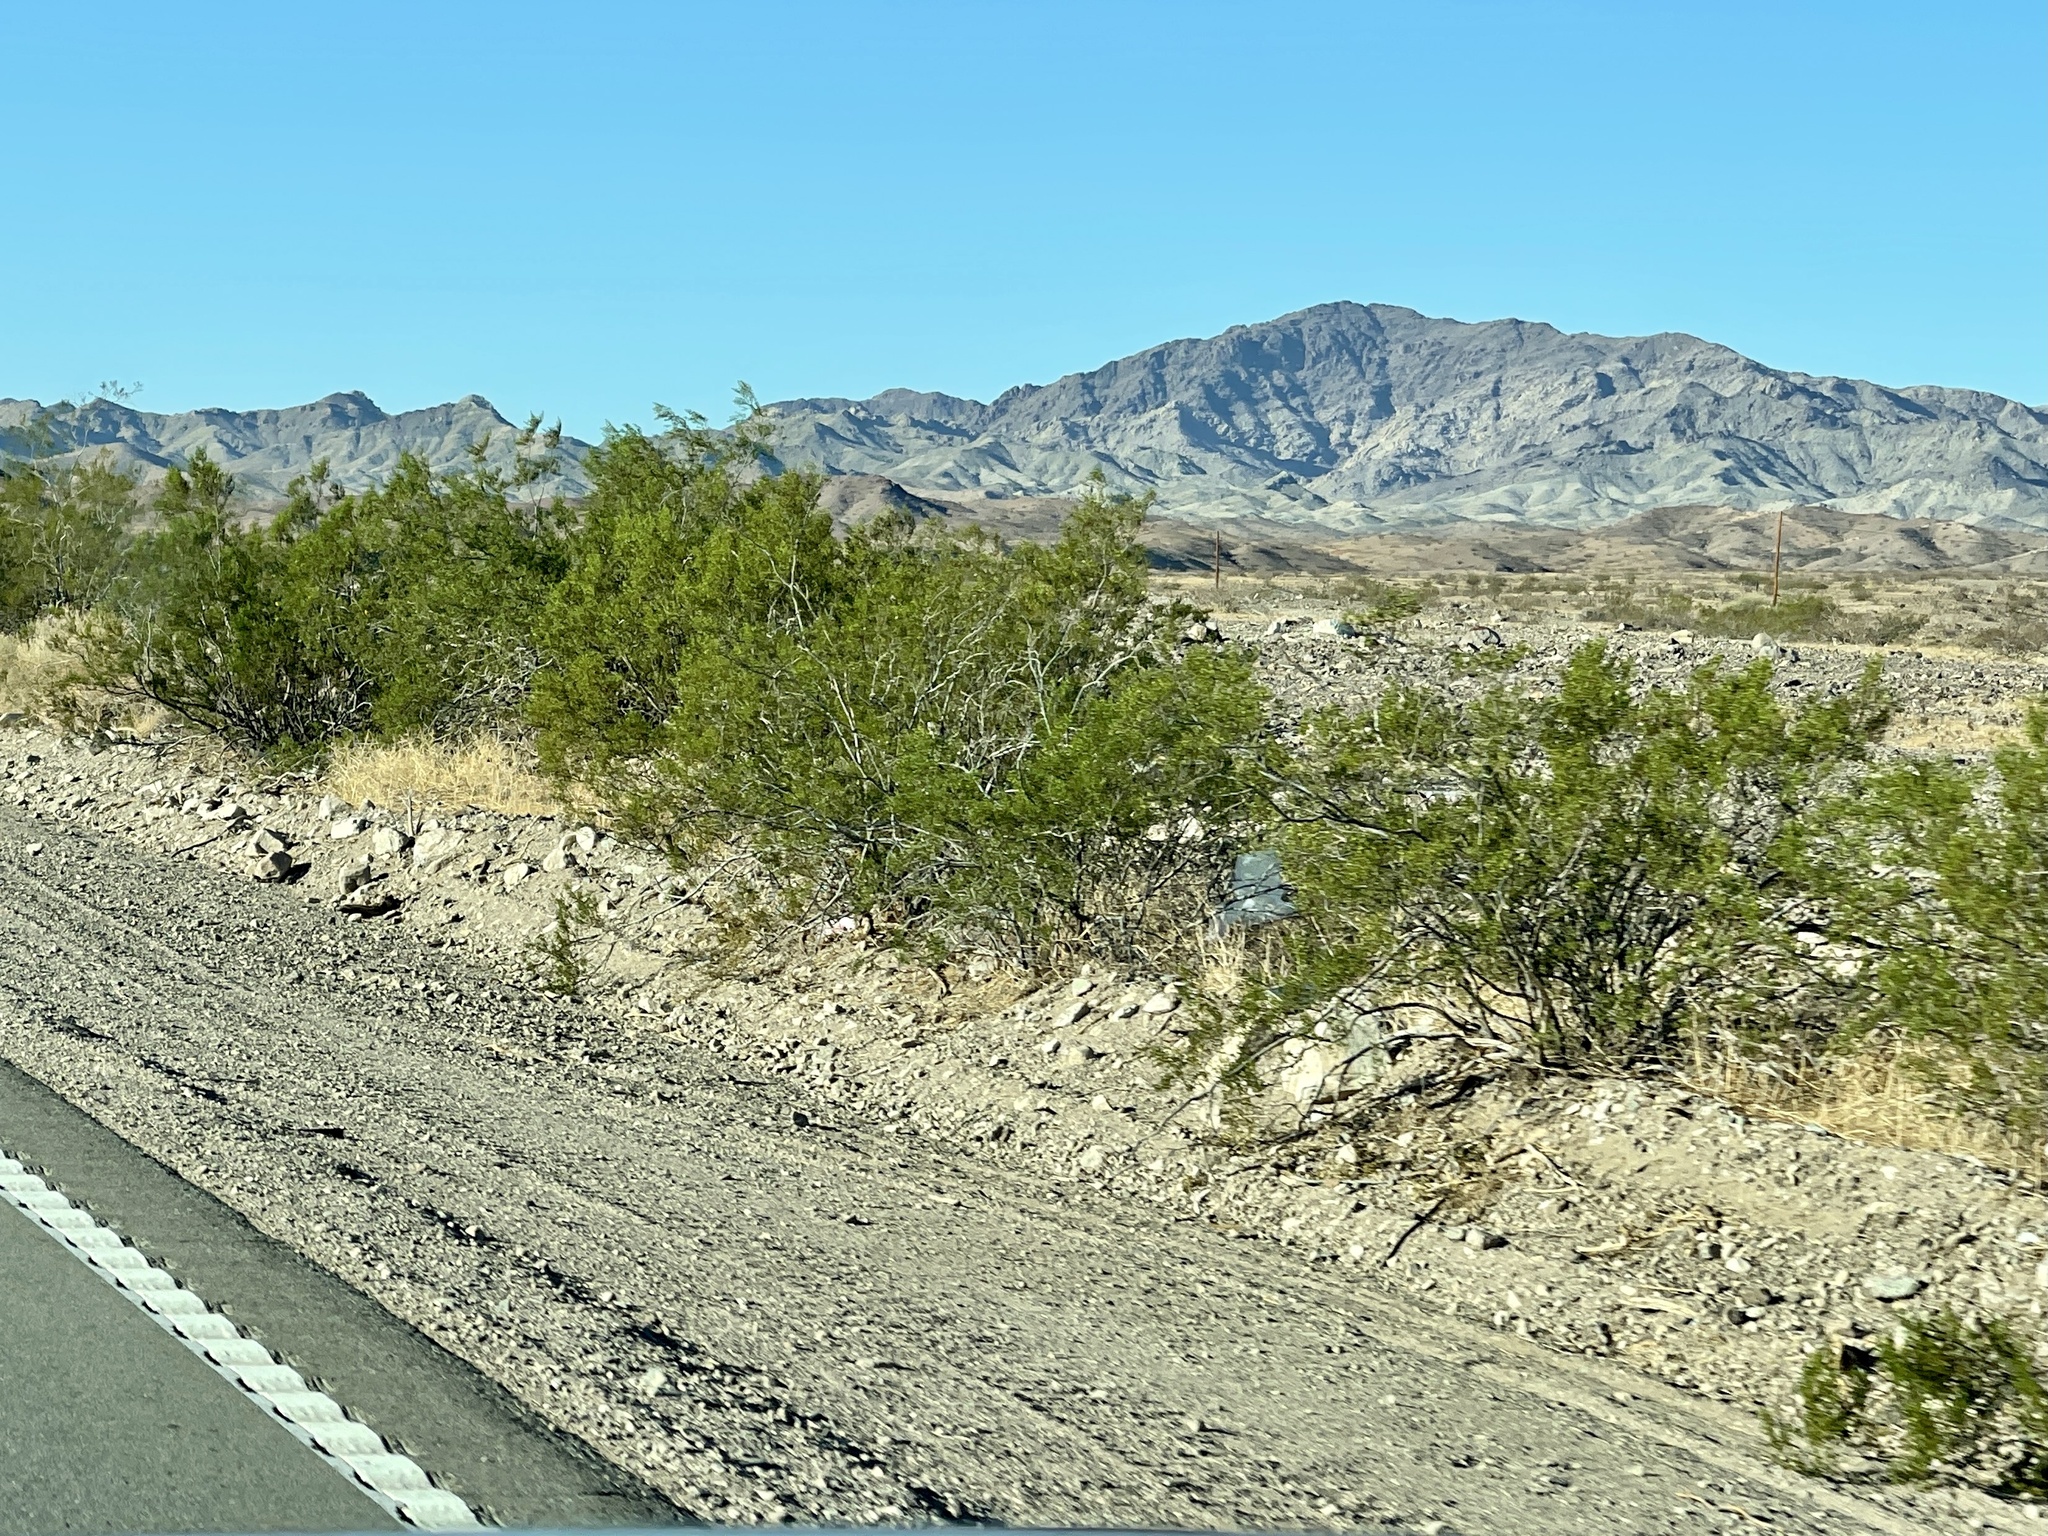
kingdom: Plantae
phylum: Tracheophyta
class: Magnoliopsida
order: Zygophyllales
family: Zygophyllaceae
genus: Larrea
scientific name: Larrea tridentata
